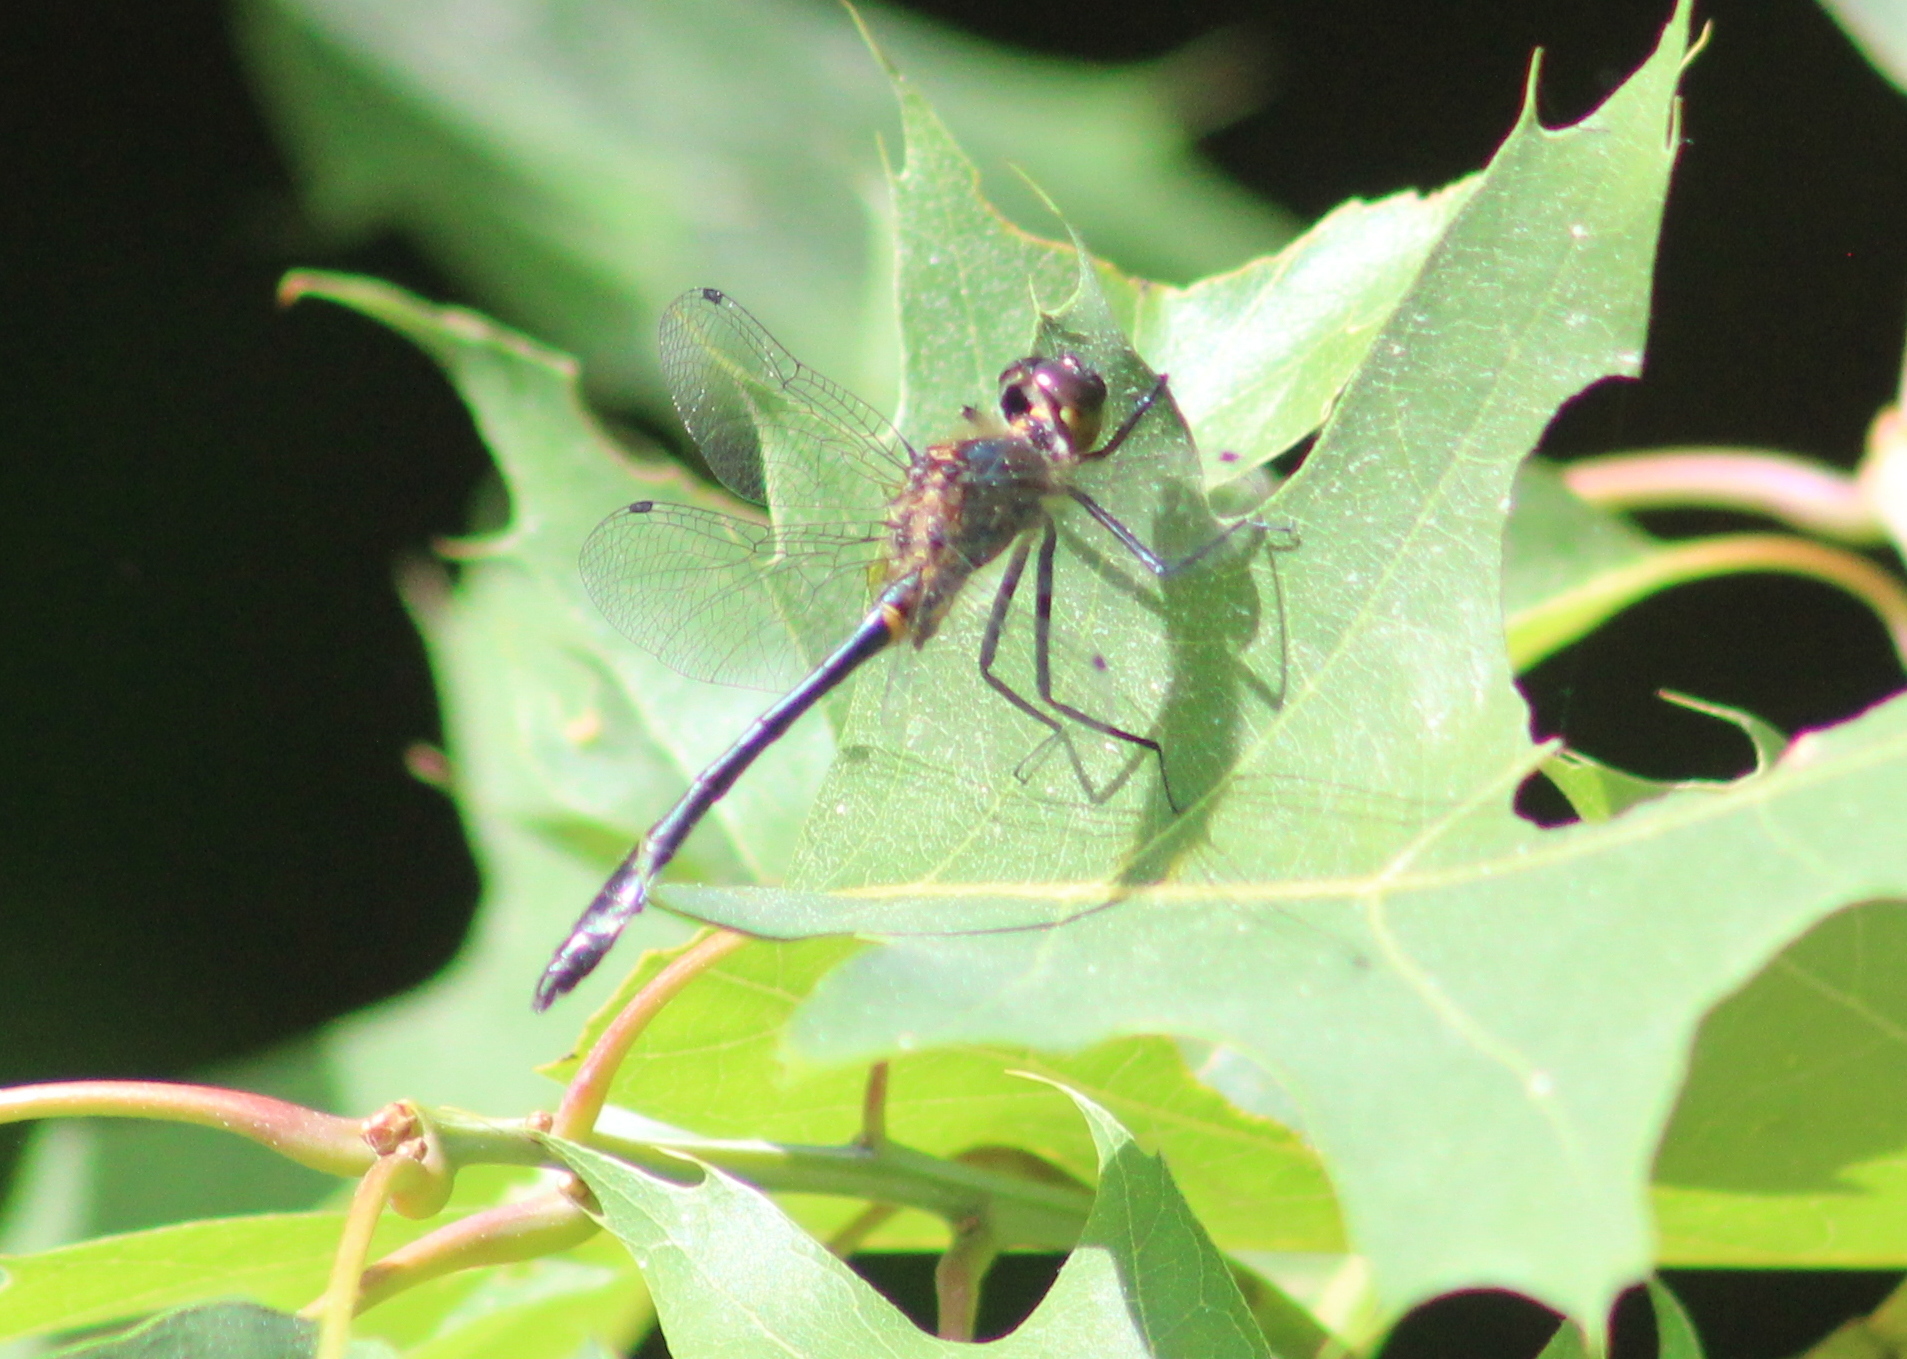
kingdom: Animalia
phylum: Arthropoda
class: Insecta
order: Odonata
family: Corduliidae
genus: Dorocordulia
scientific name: Dorocordulia libera
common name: Racket-tailed emerald
